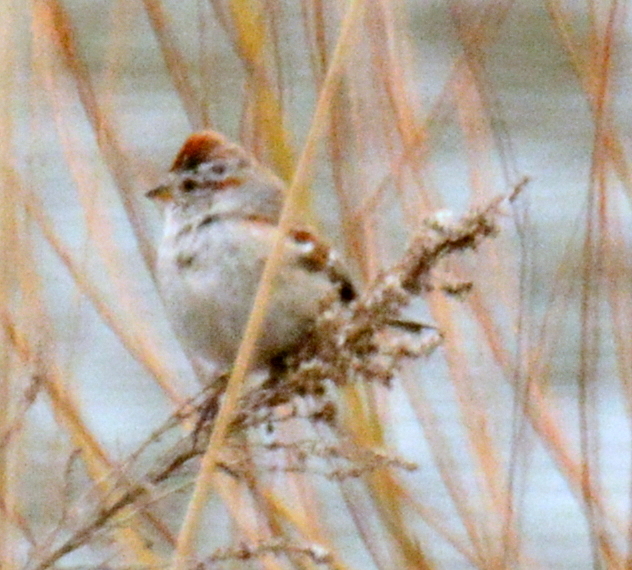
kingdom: Animalia
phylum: Chordata
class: Aves
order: Passeriformes
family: Passerellidae
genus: Spizelloides
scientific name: Spizelloides arborea
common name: American tree sparrow
